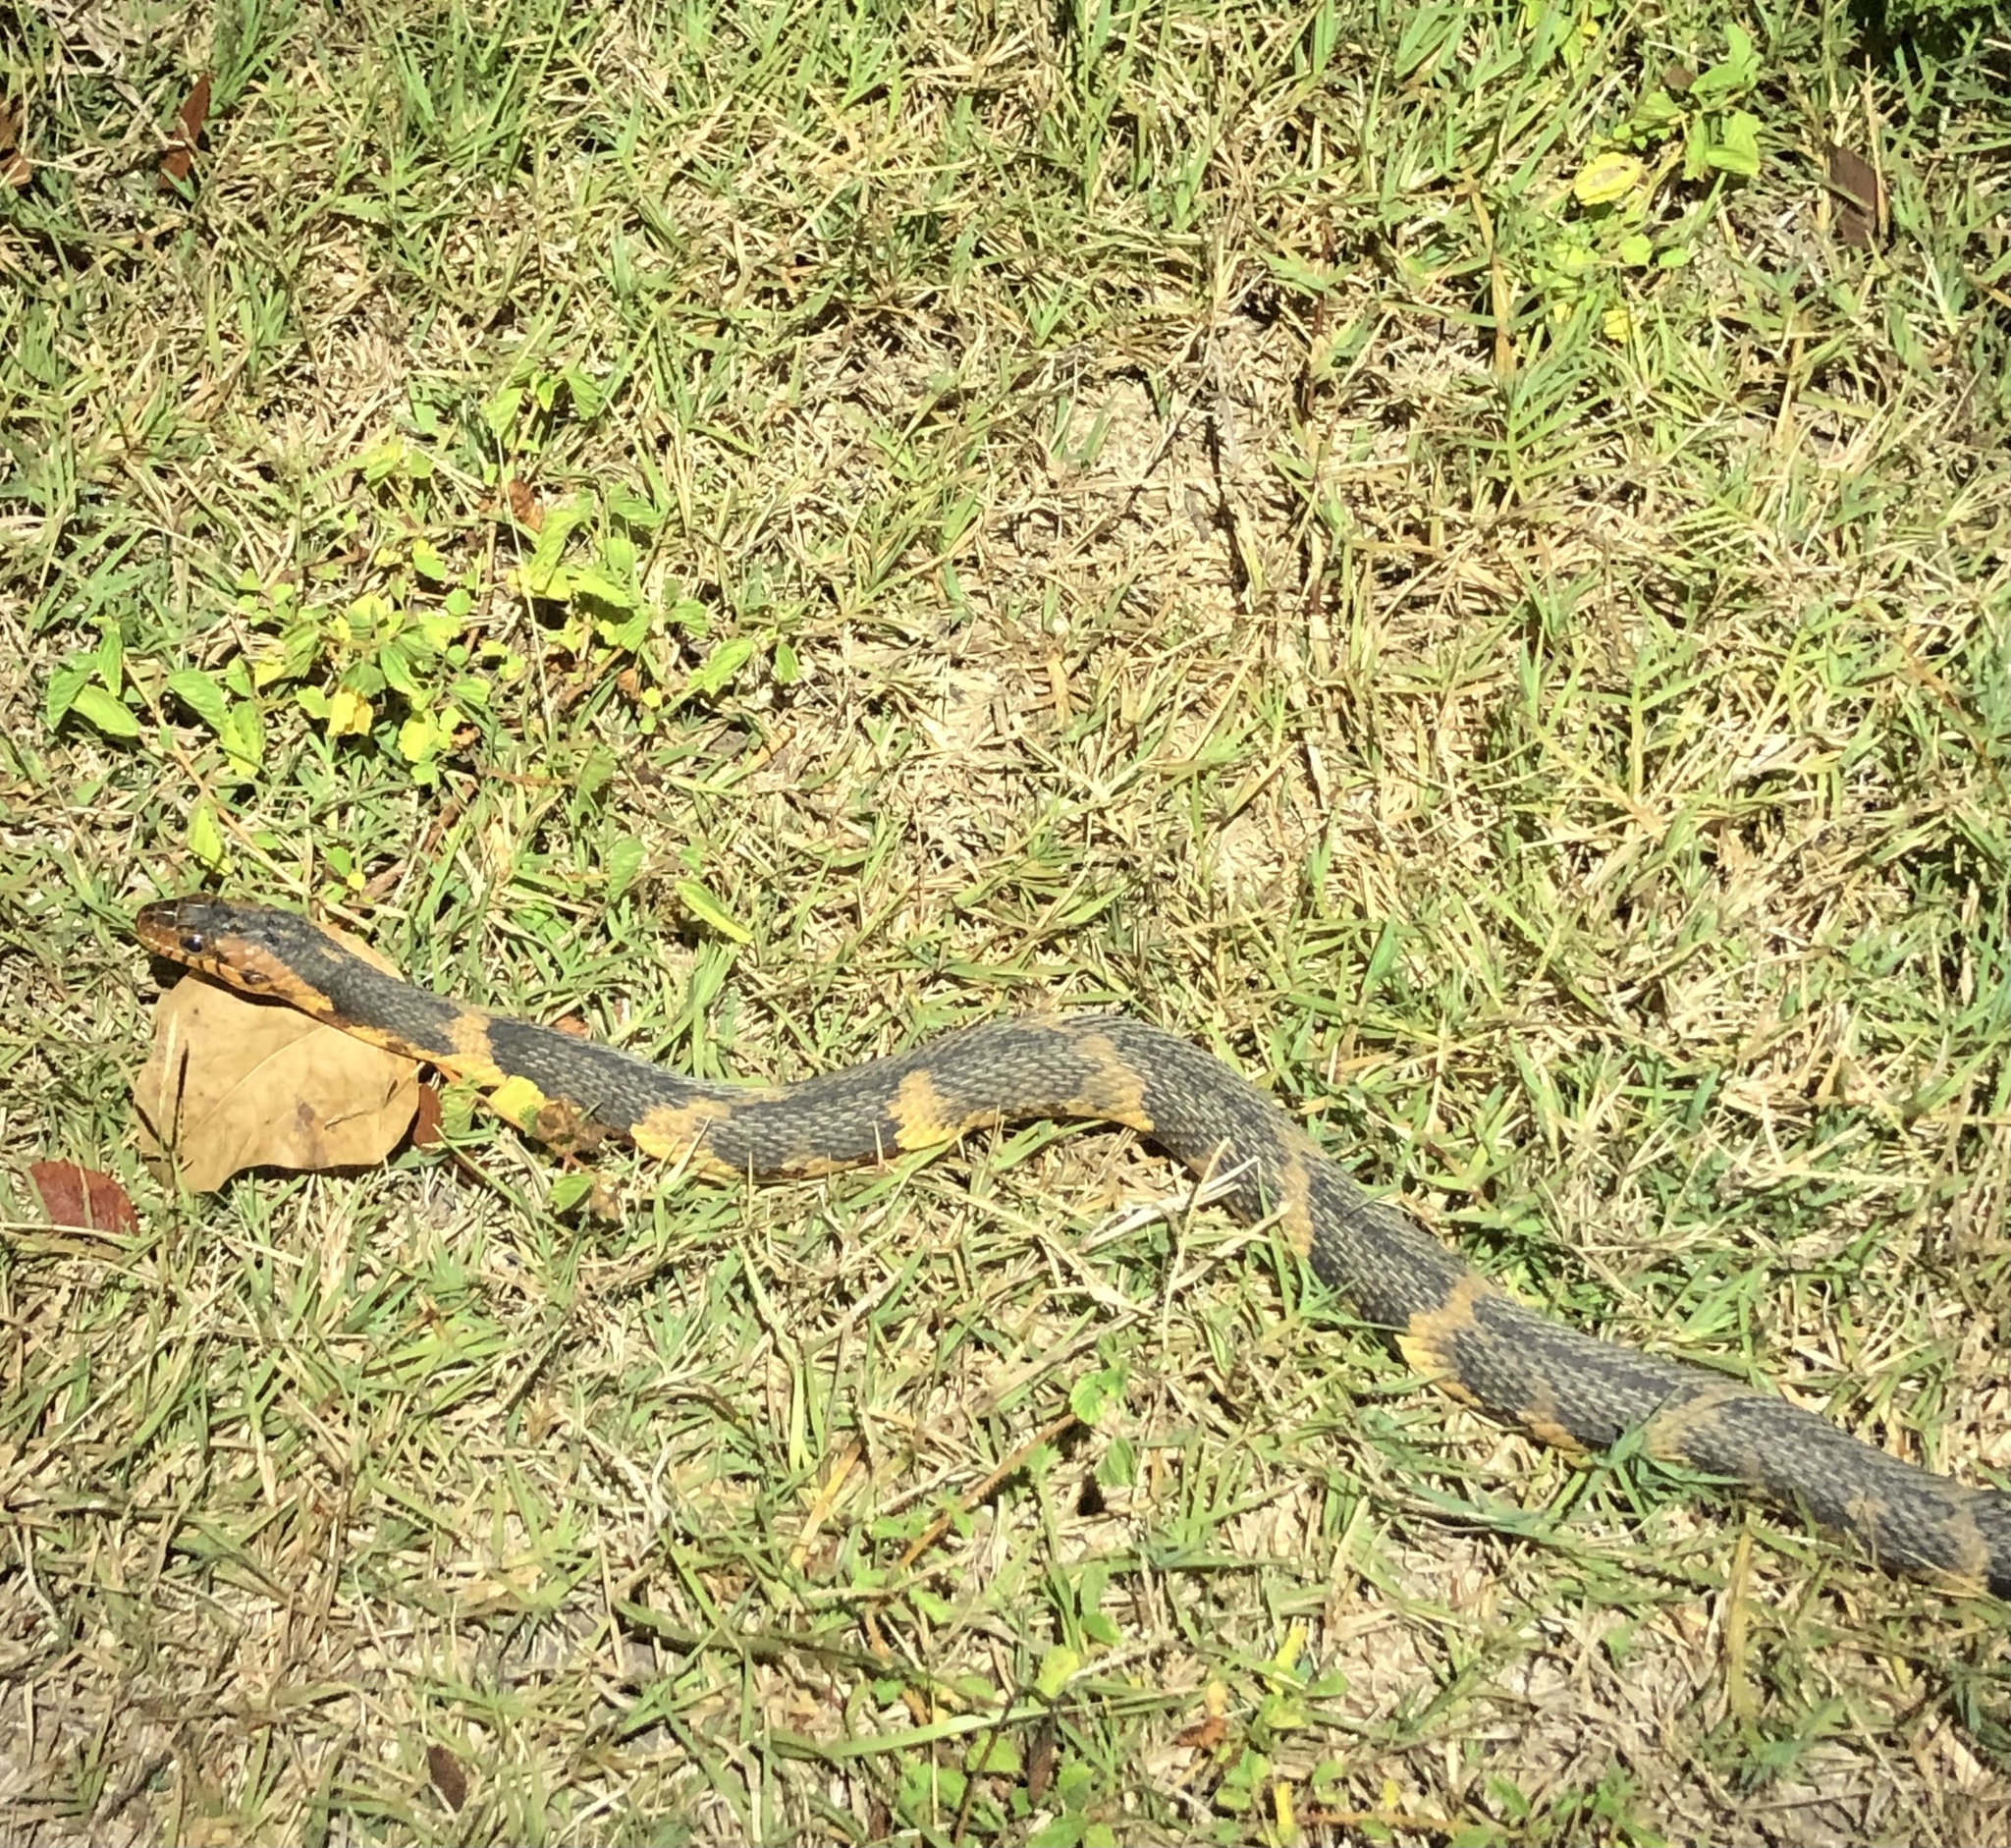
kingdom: Animalia
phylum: Chordata
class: Squamata
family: Colubridae
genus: Nerodia
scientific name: Nerodia fasciata
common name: Southern water snake
